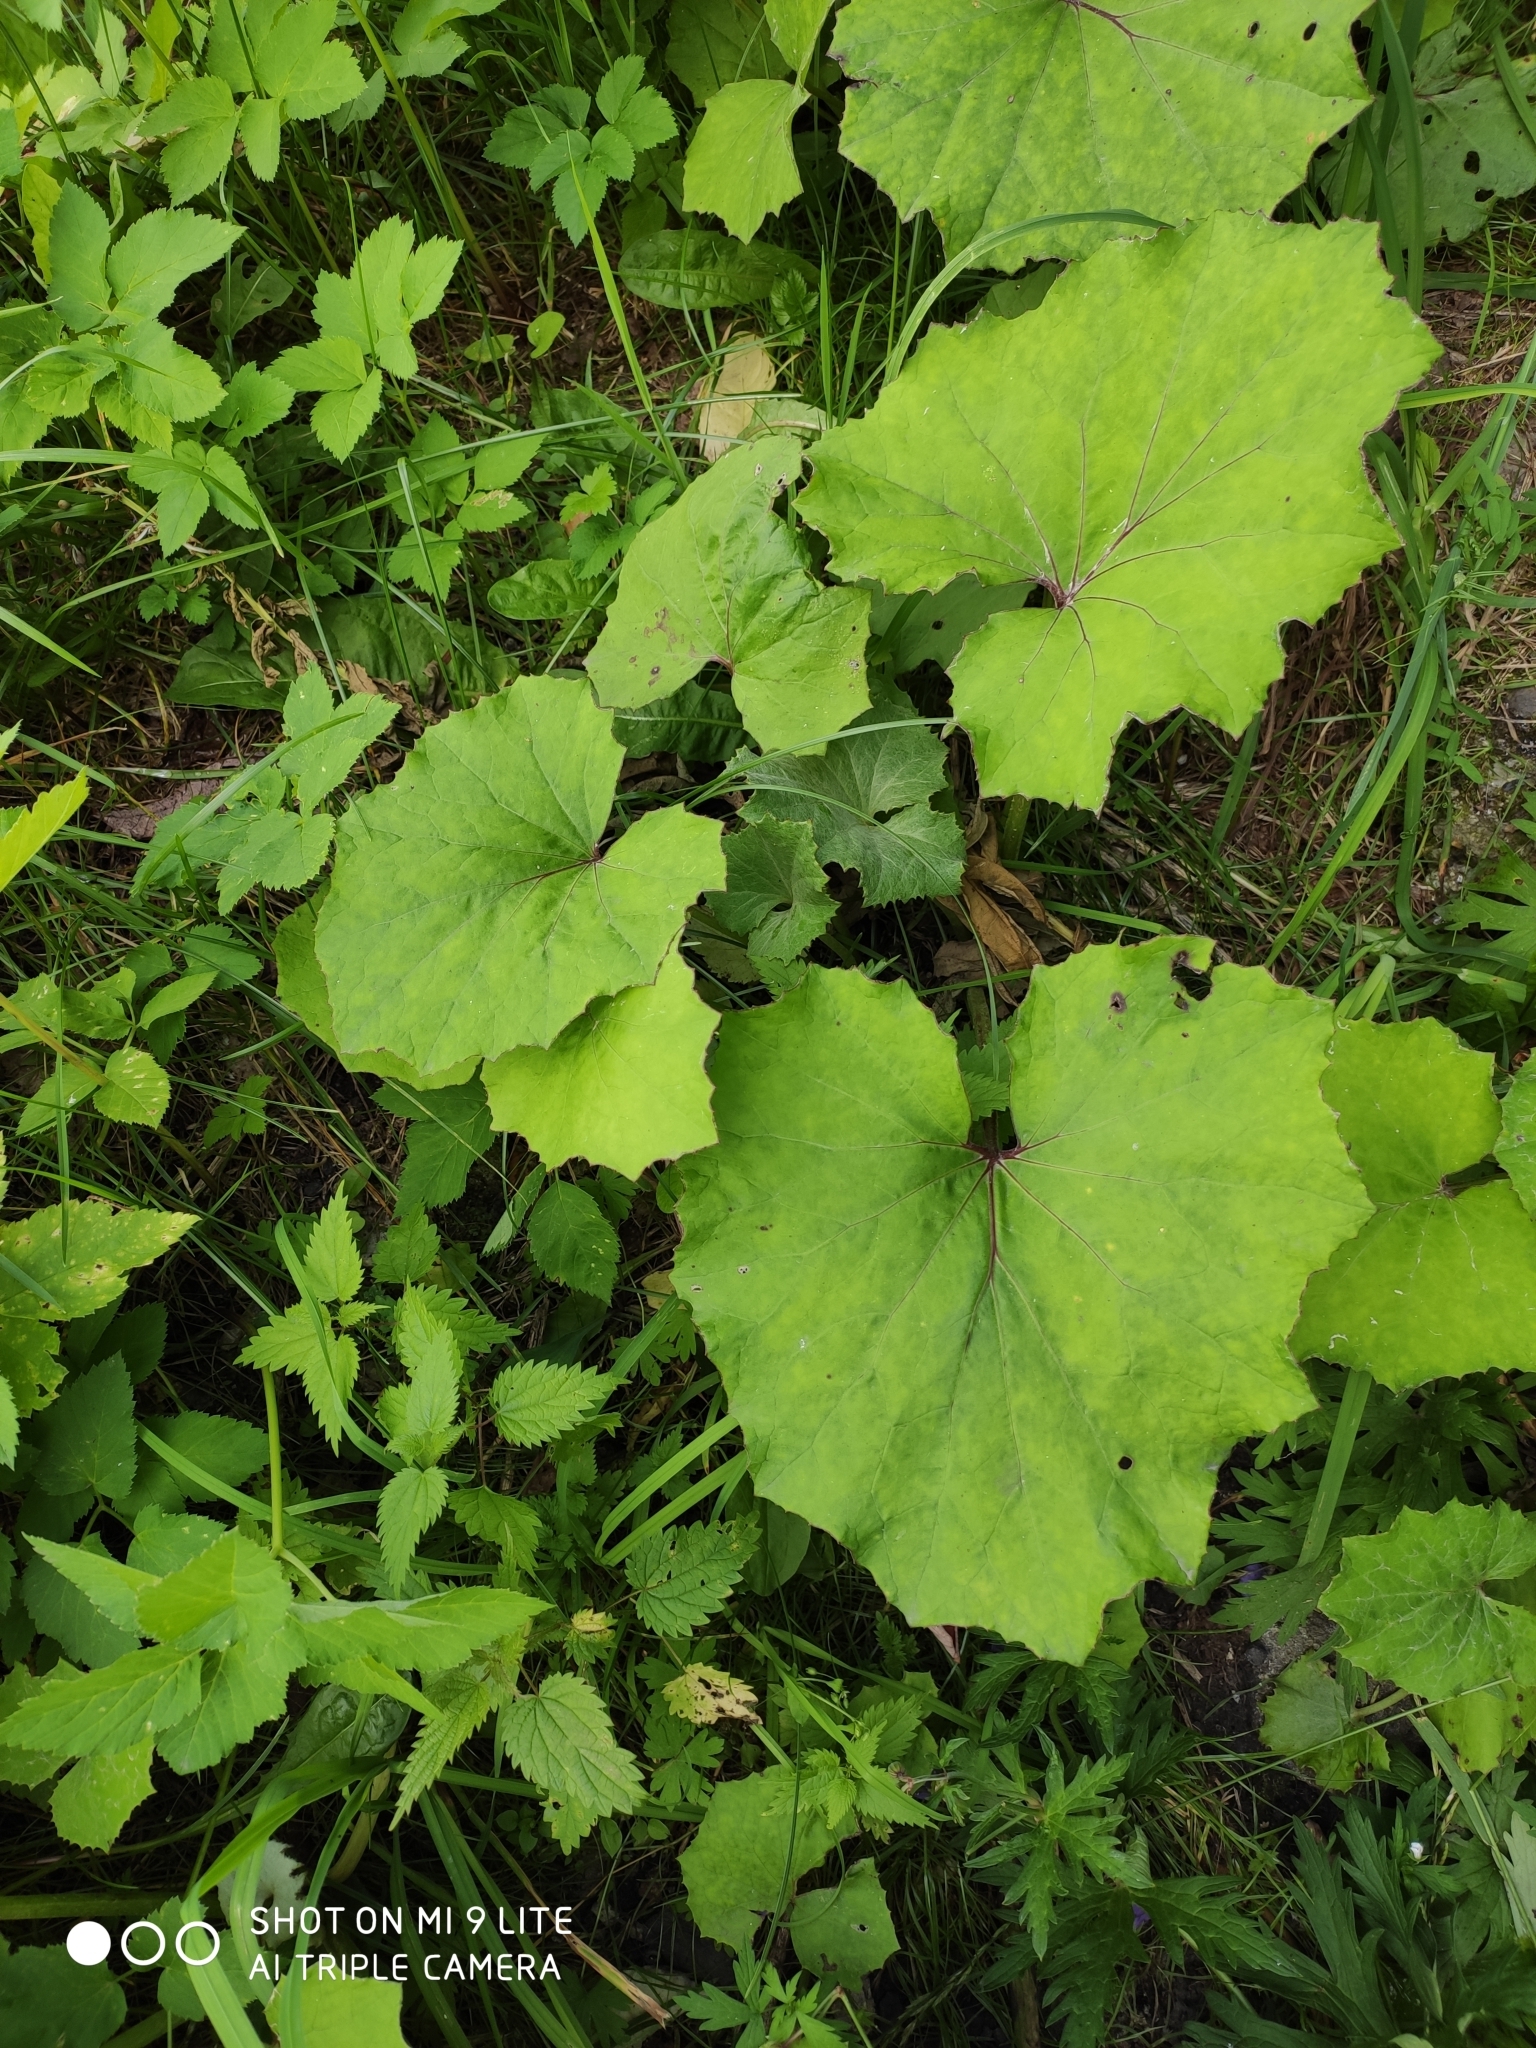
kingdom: Plantae
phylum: Tracheophyta
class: Magnoliopsida
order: Asterales
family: Asteraceae
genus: Tussilago
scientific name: Tussilago farfara
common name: Coltsfoot
